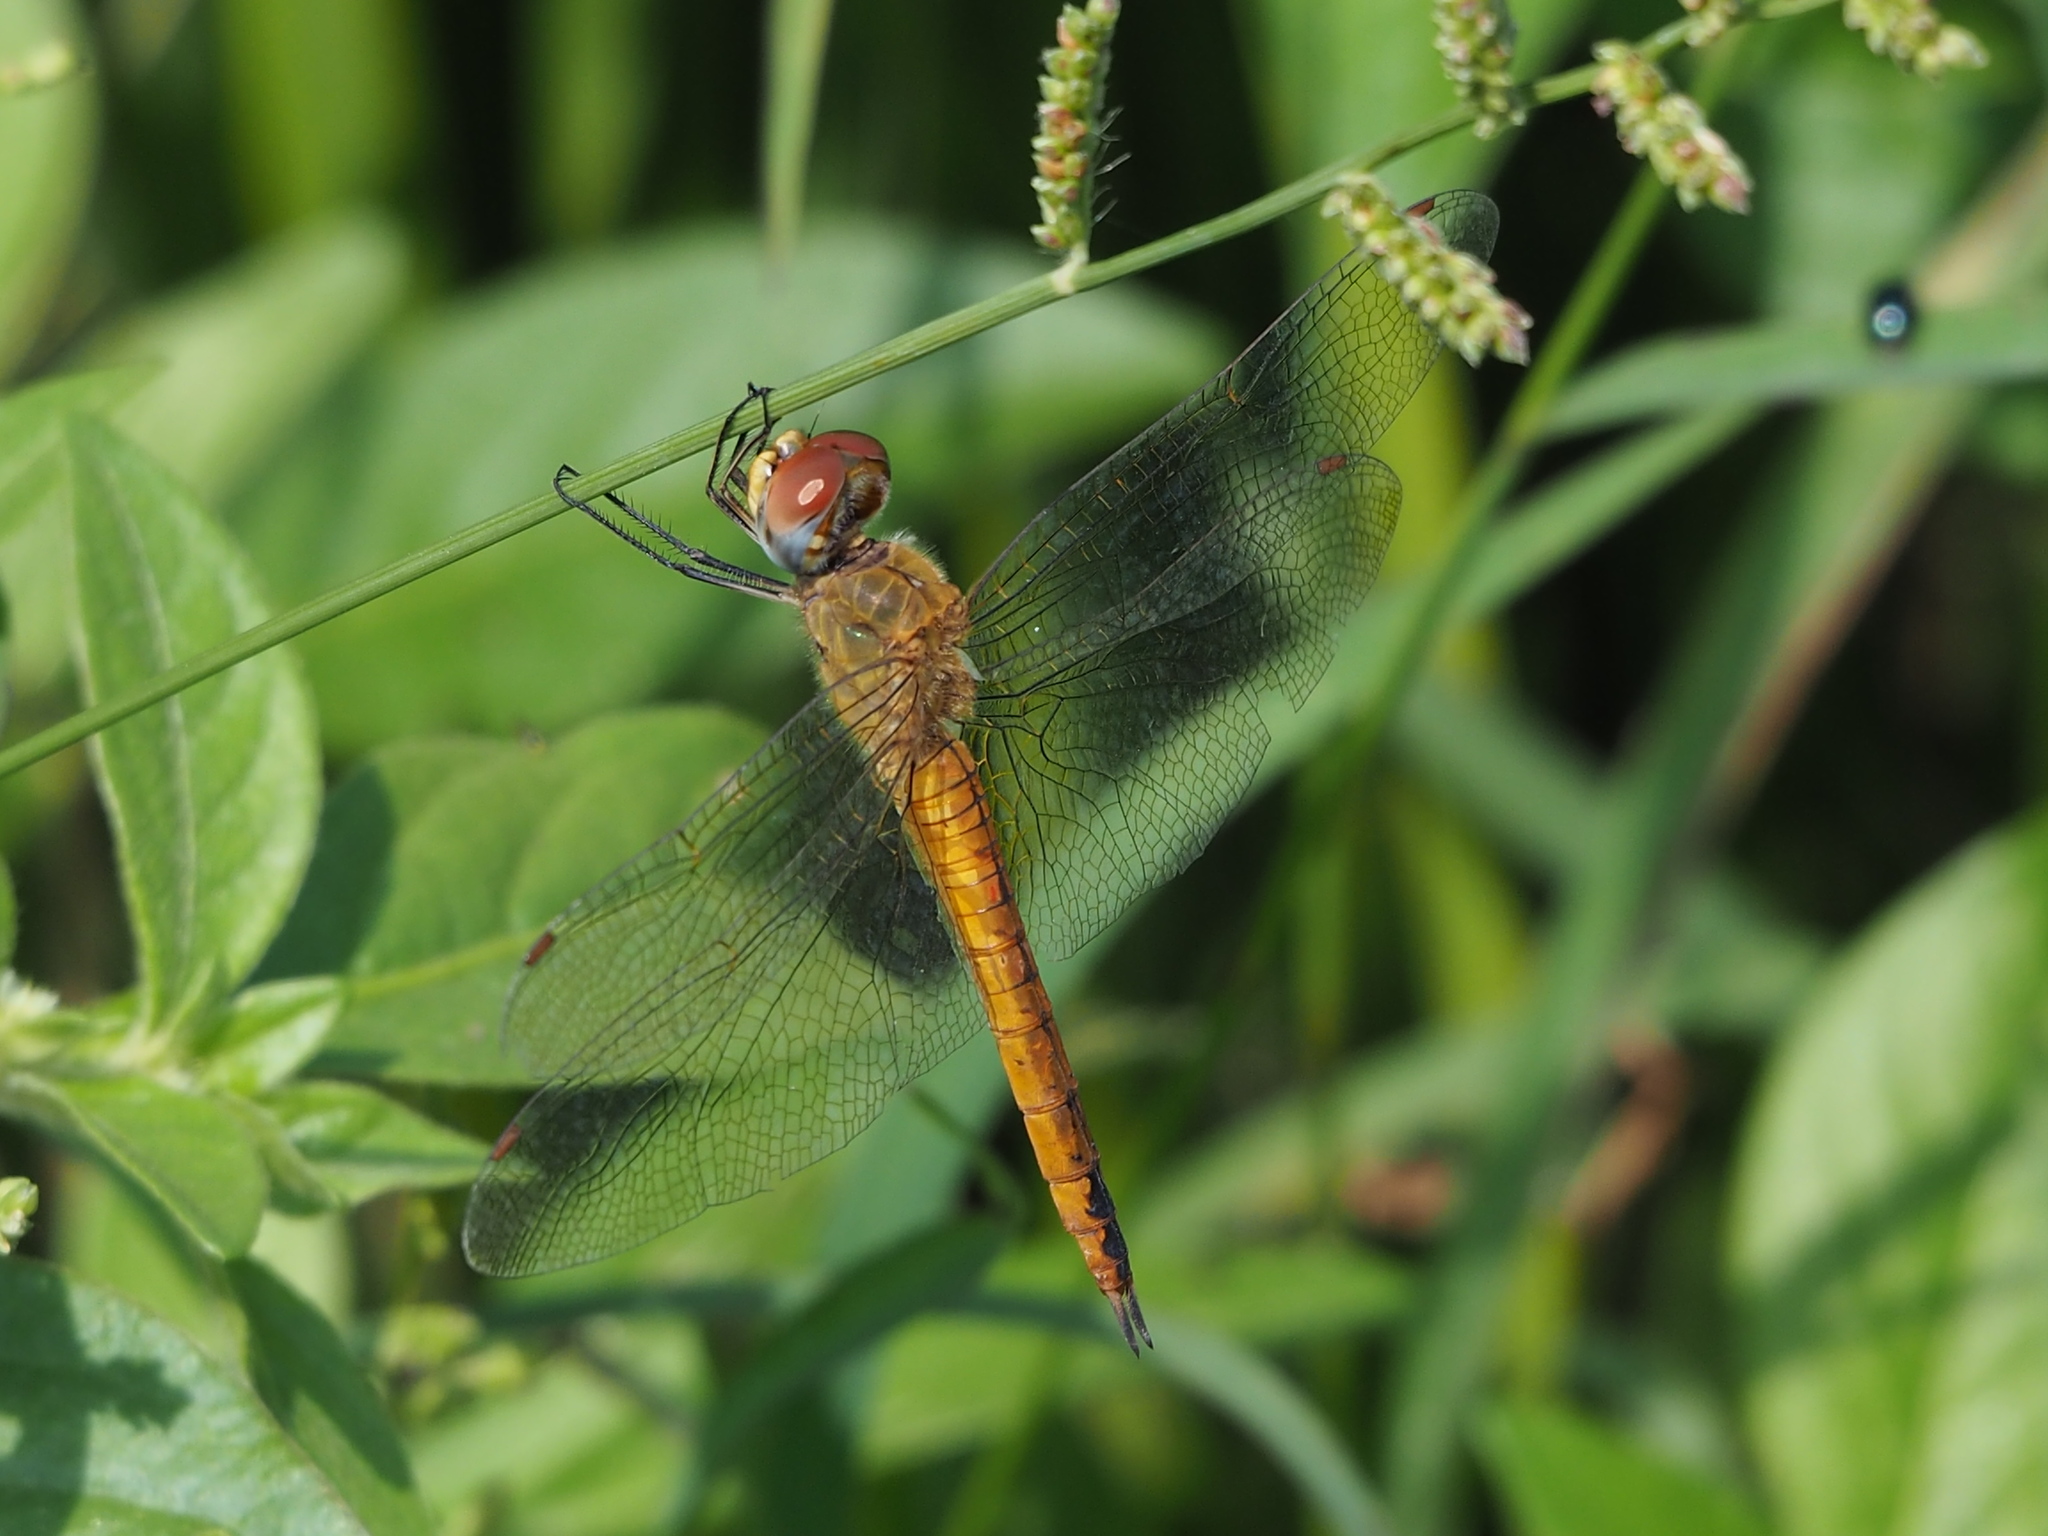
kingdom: Animalia
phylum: Arthropoda
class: Insecta
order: Odonata
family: Libellulidae
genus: Pantala
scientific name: Pantala flavescens
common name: Wandering glider
